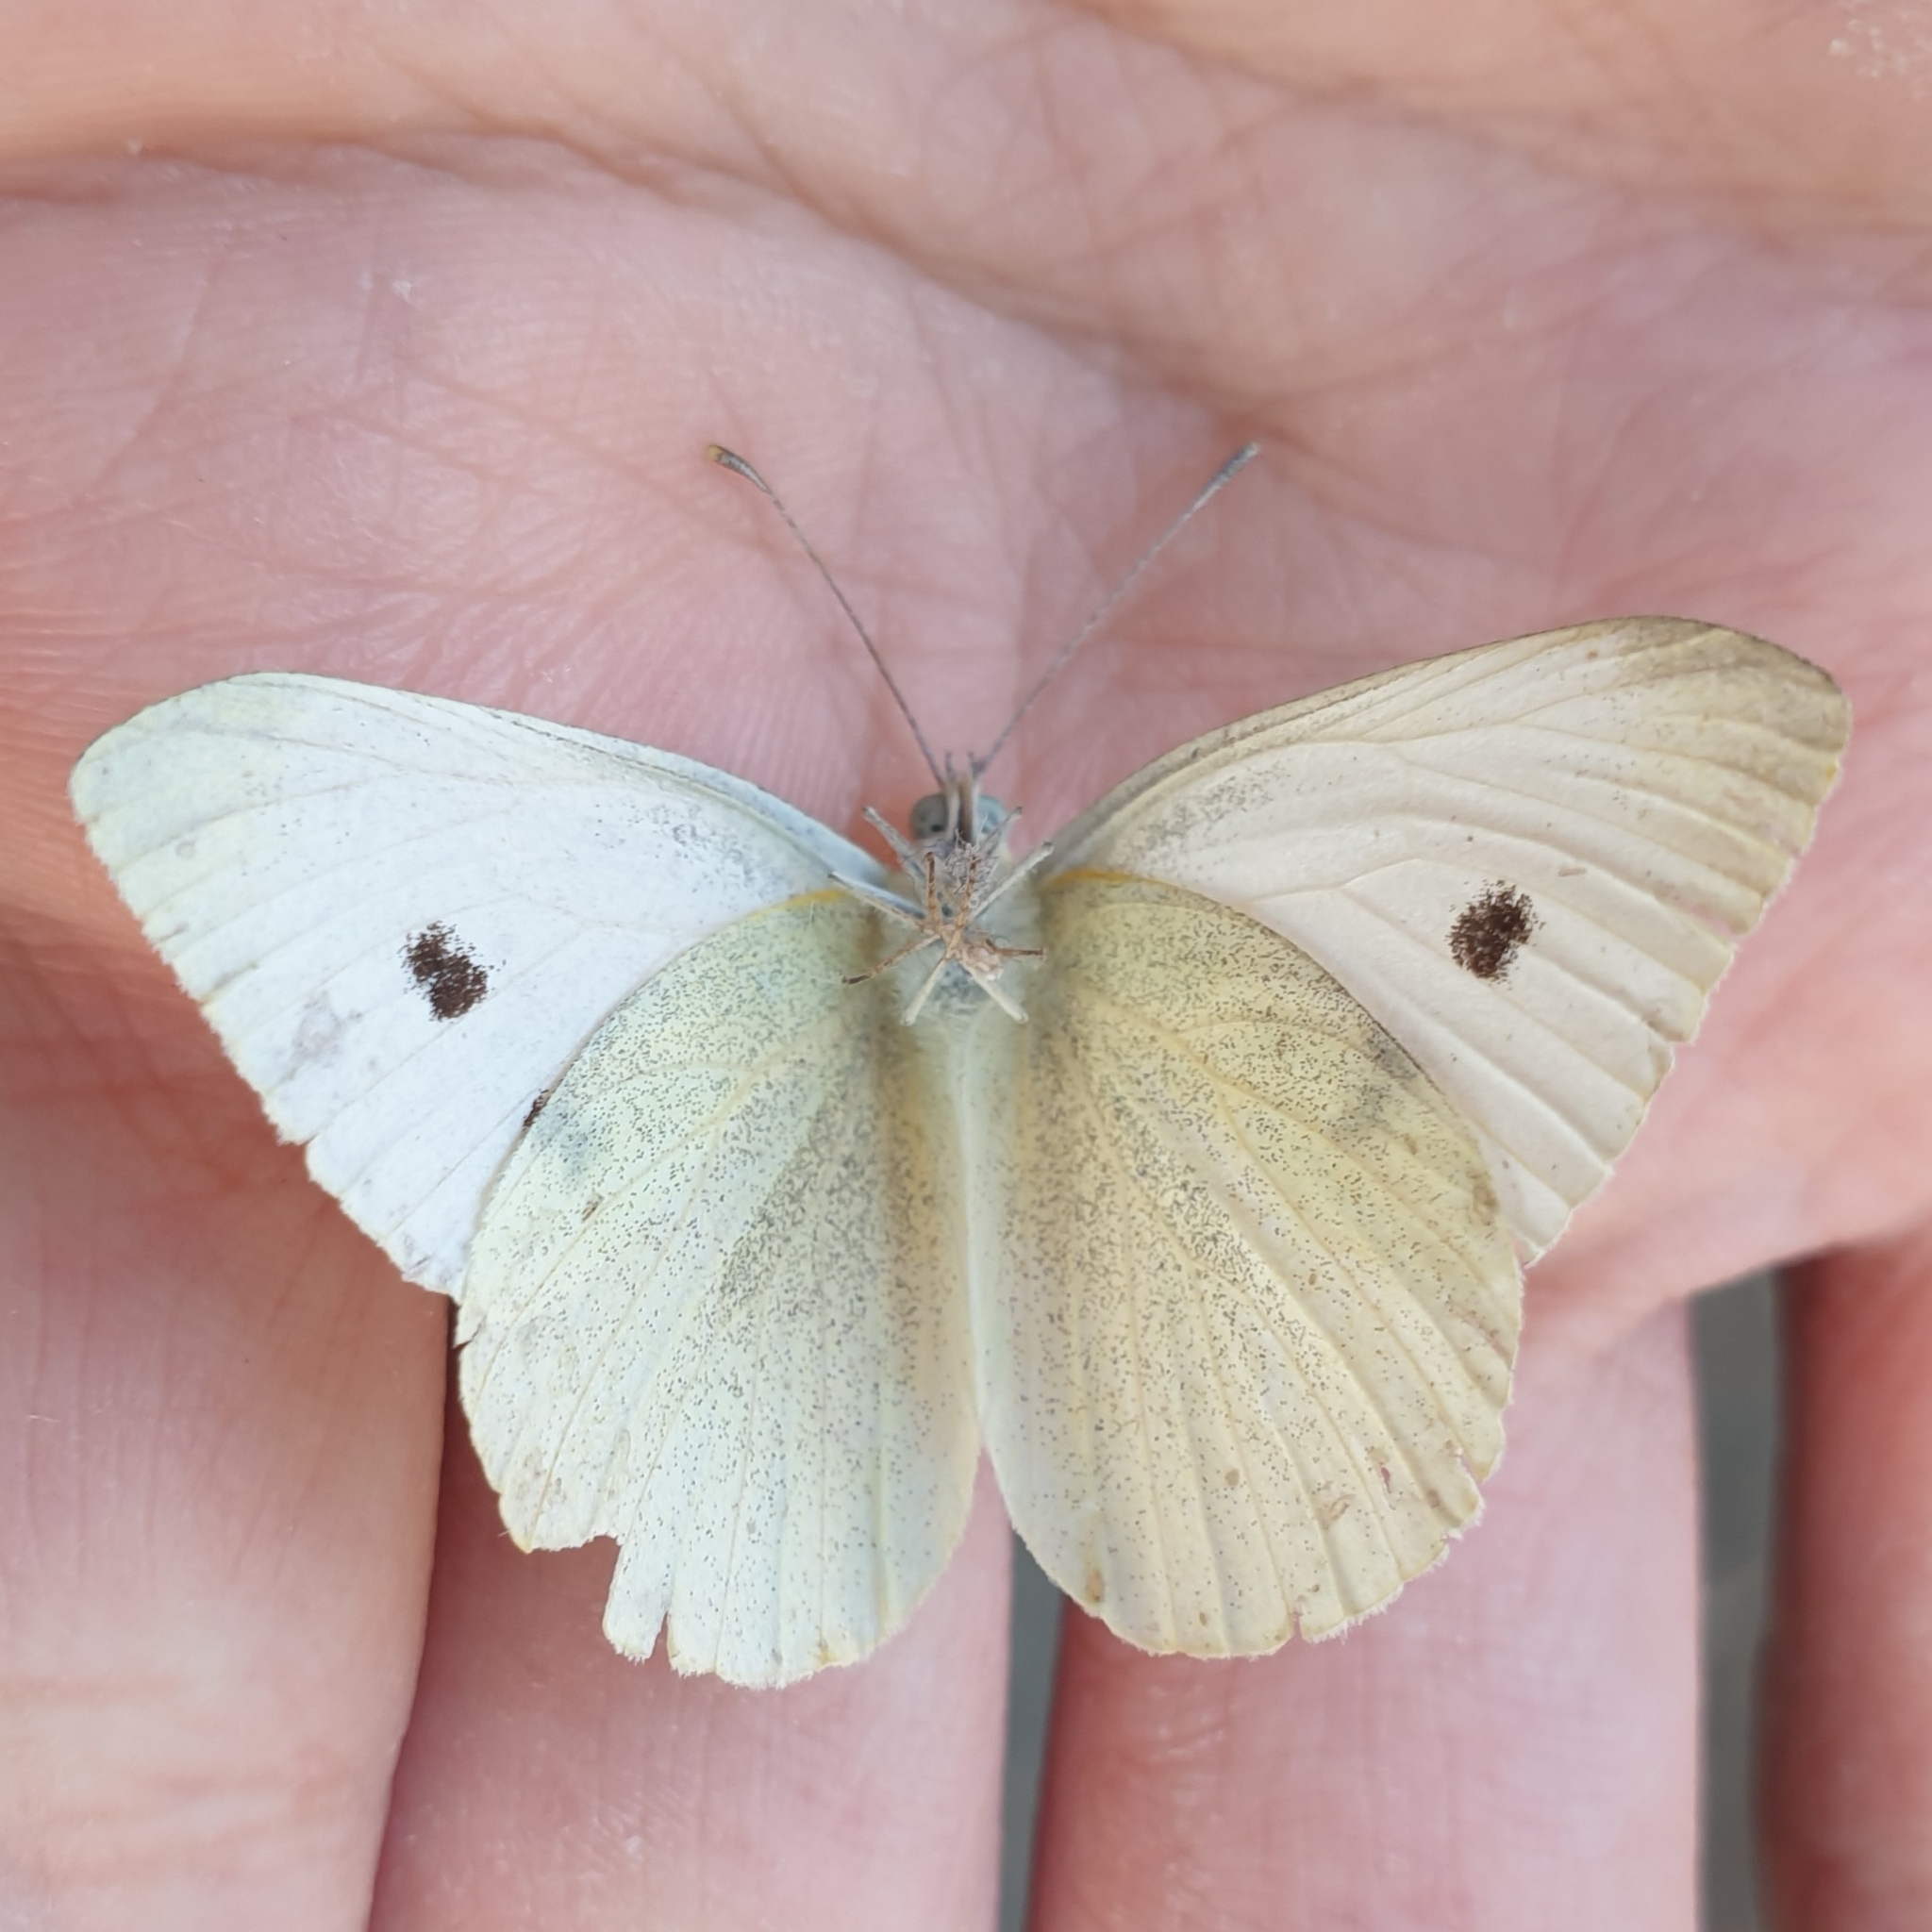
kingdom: Animalia
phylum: Arthropoda
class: Insecta
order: Lepidoptera
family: Pieridae
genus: Pieris
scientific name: Pieris rapae
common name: Small white
